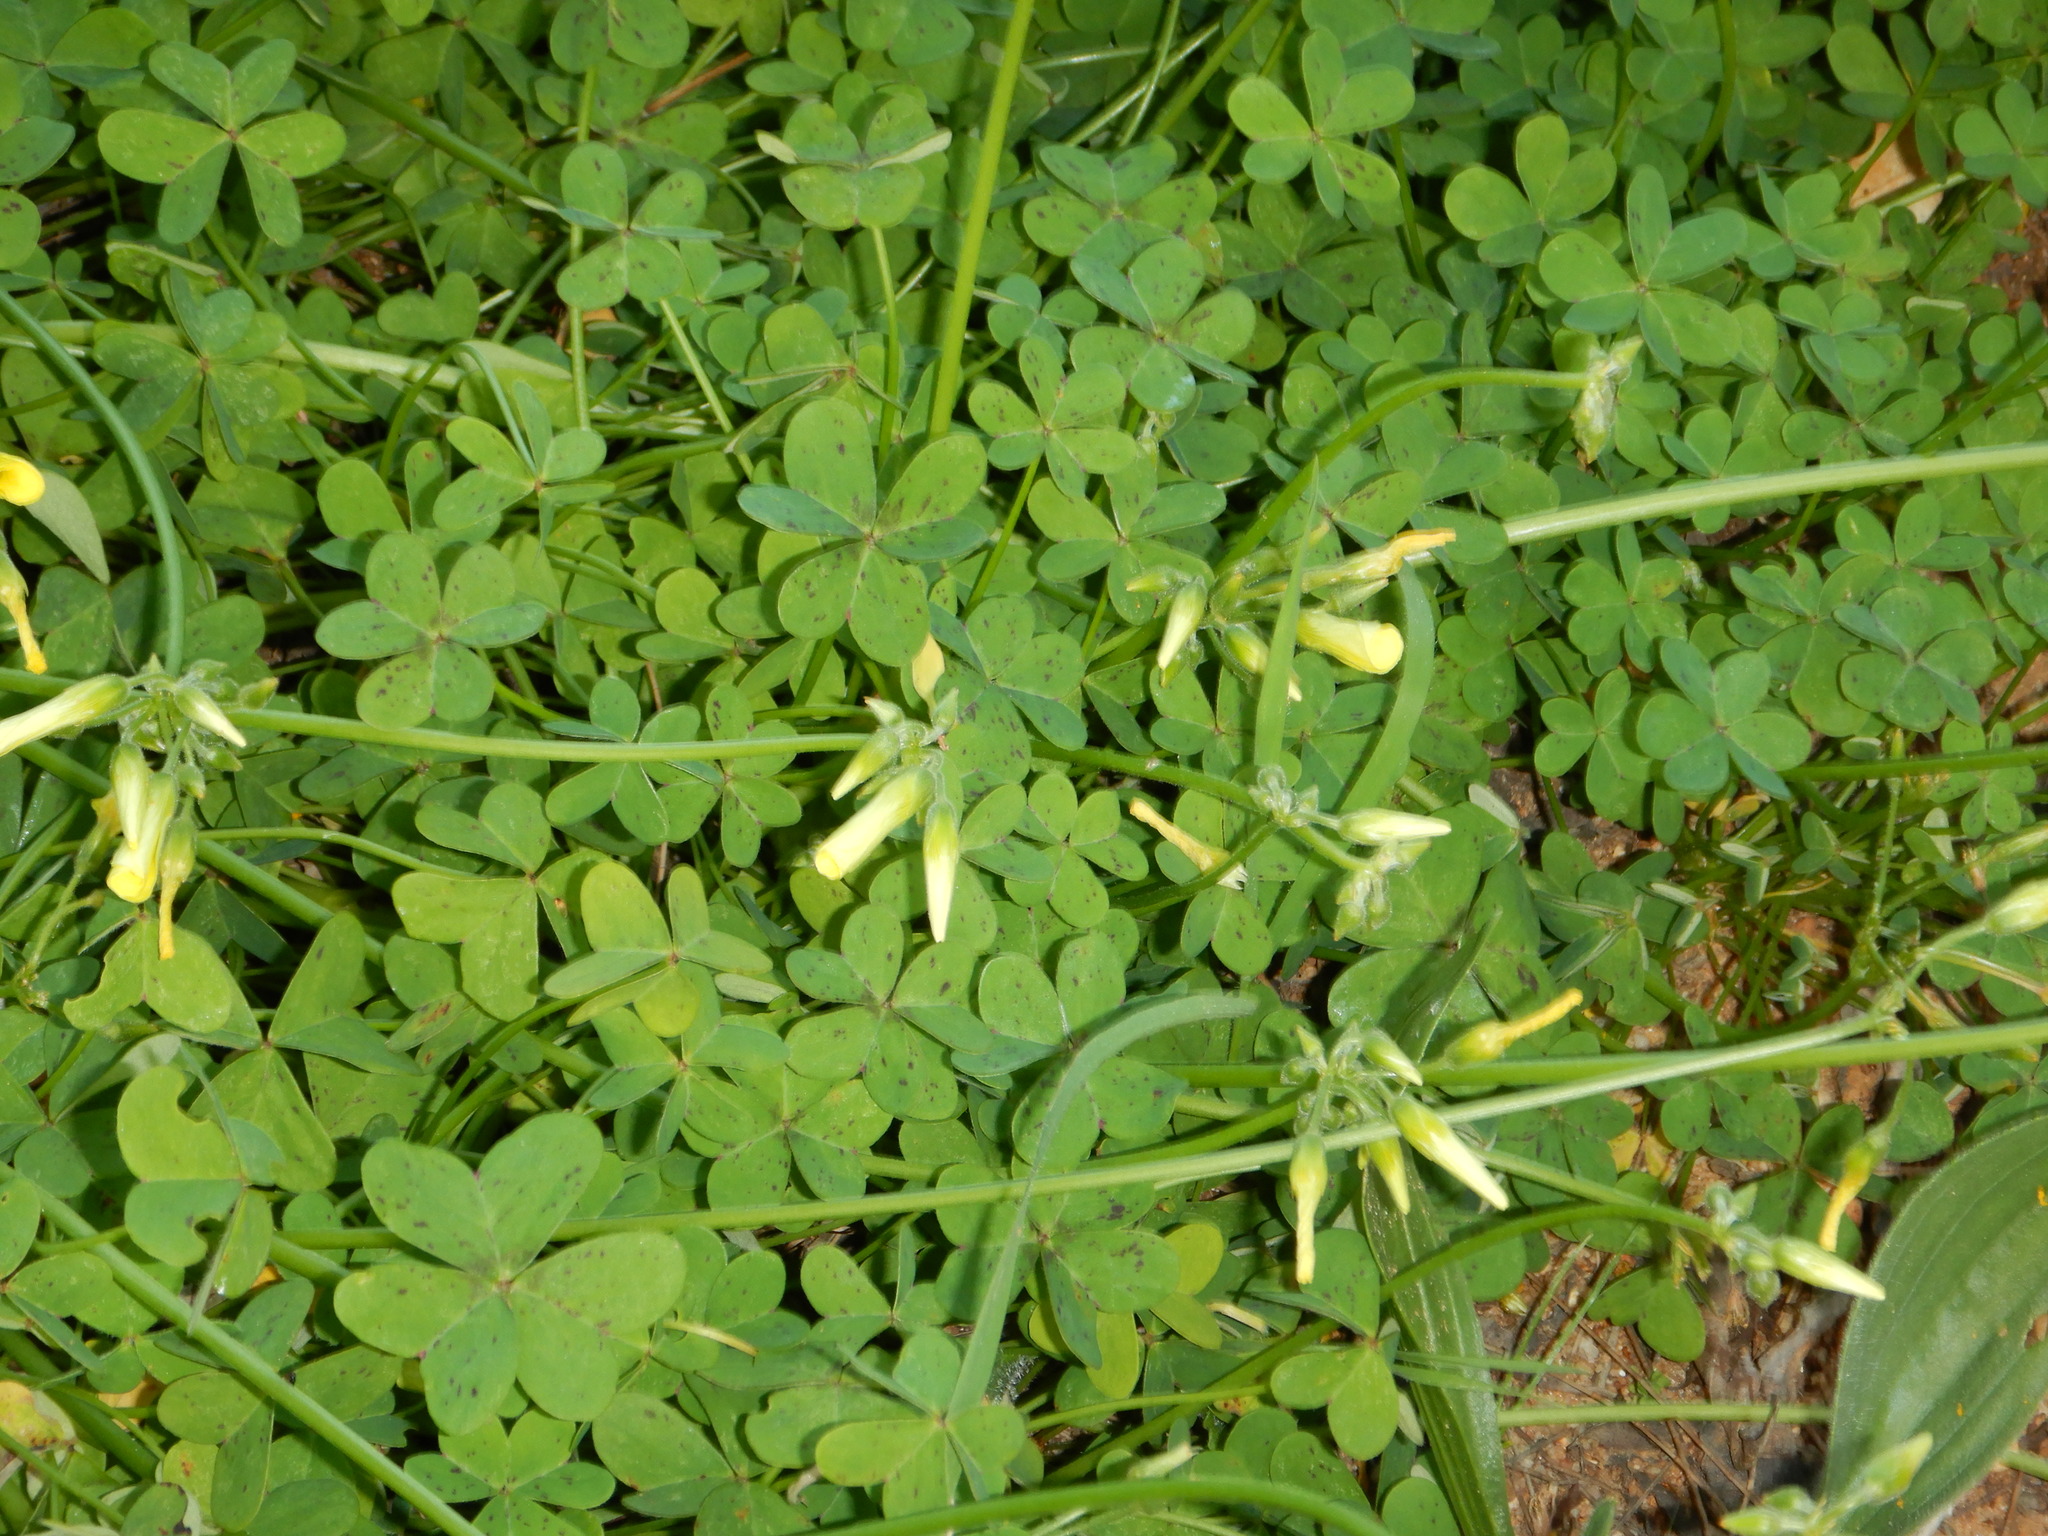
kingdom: Plantae
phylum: Tracheophyta
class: Magnoliopsida
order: Oxalidales
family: Oxalidaceae
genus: Oxalis
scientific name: Oxalis pes-caprae
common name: Bermuda-buttercup
